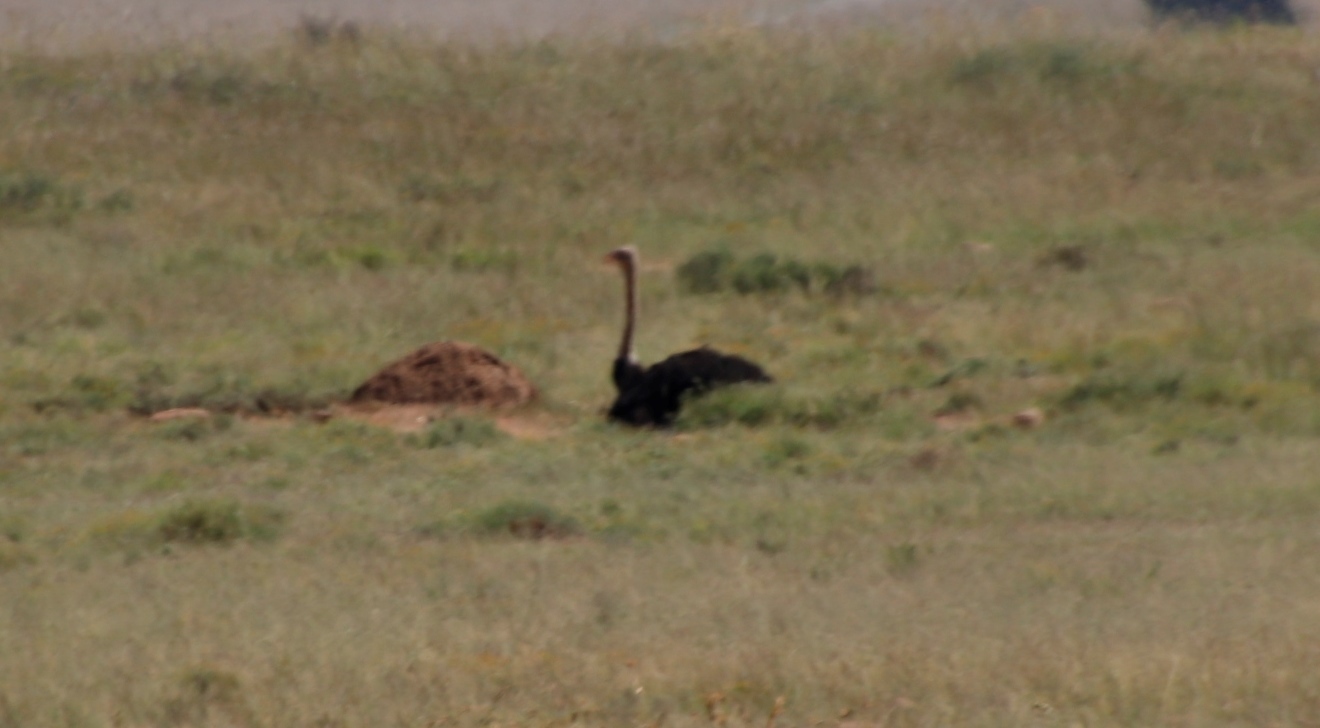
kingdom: Animalia
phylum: Chordata
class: Aves
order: Struthioniformes
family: Struthionidae
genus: Struthio
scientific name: Struthio camelus
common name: Common ostrich
